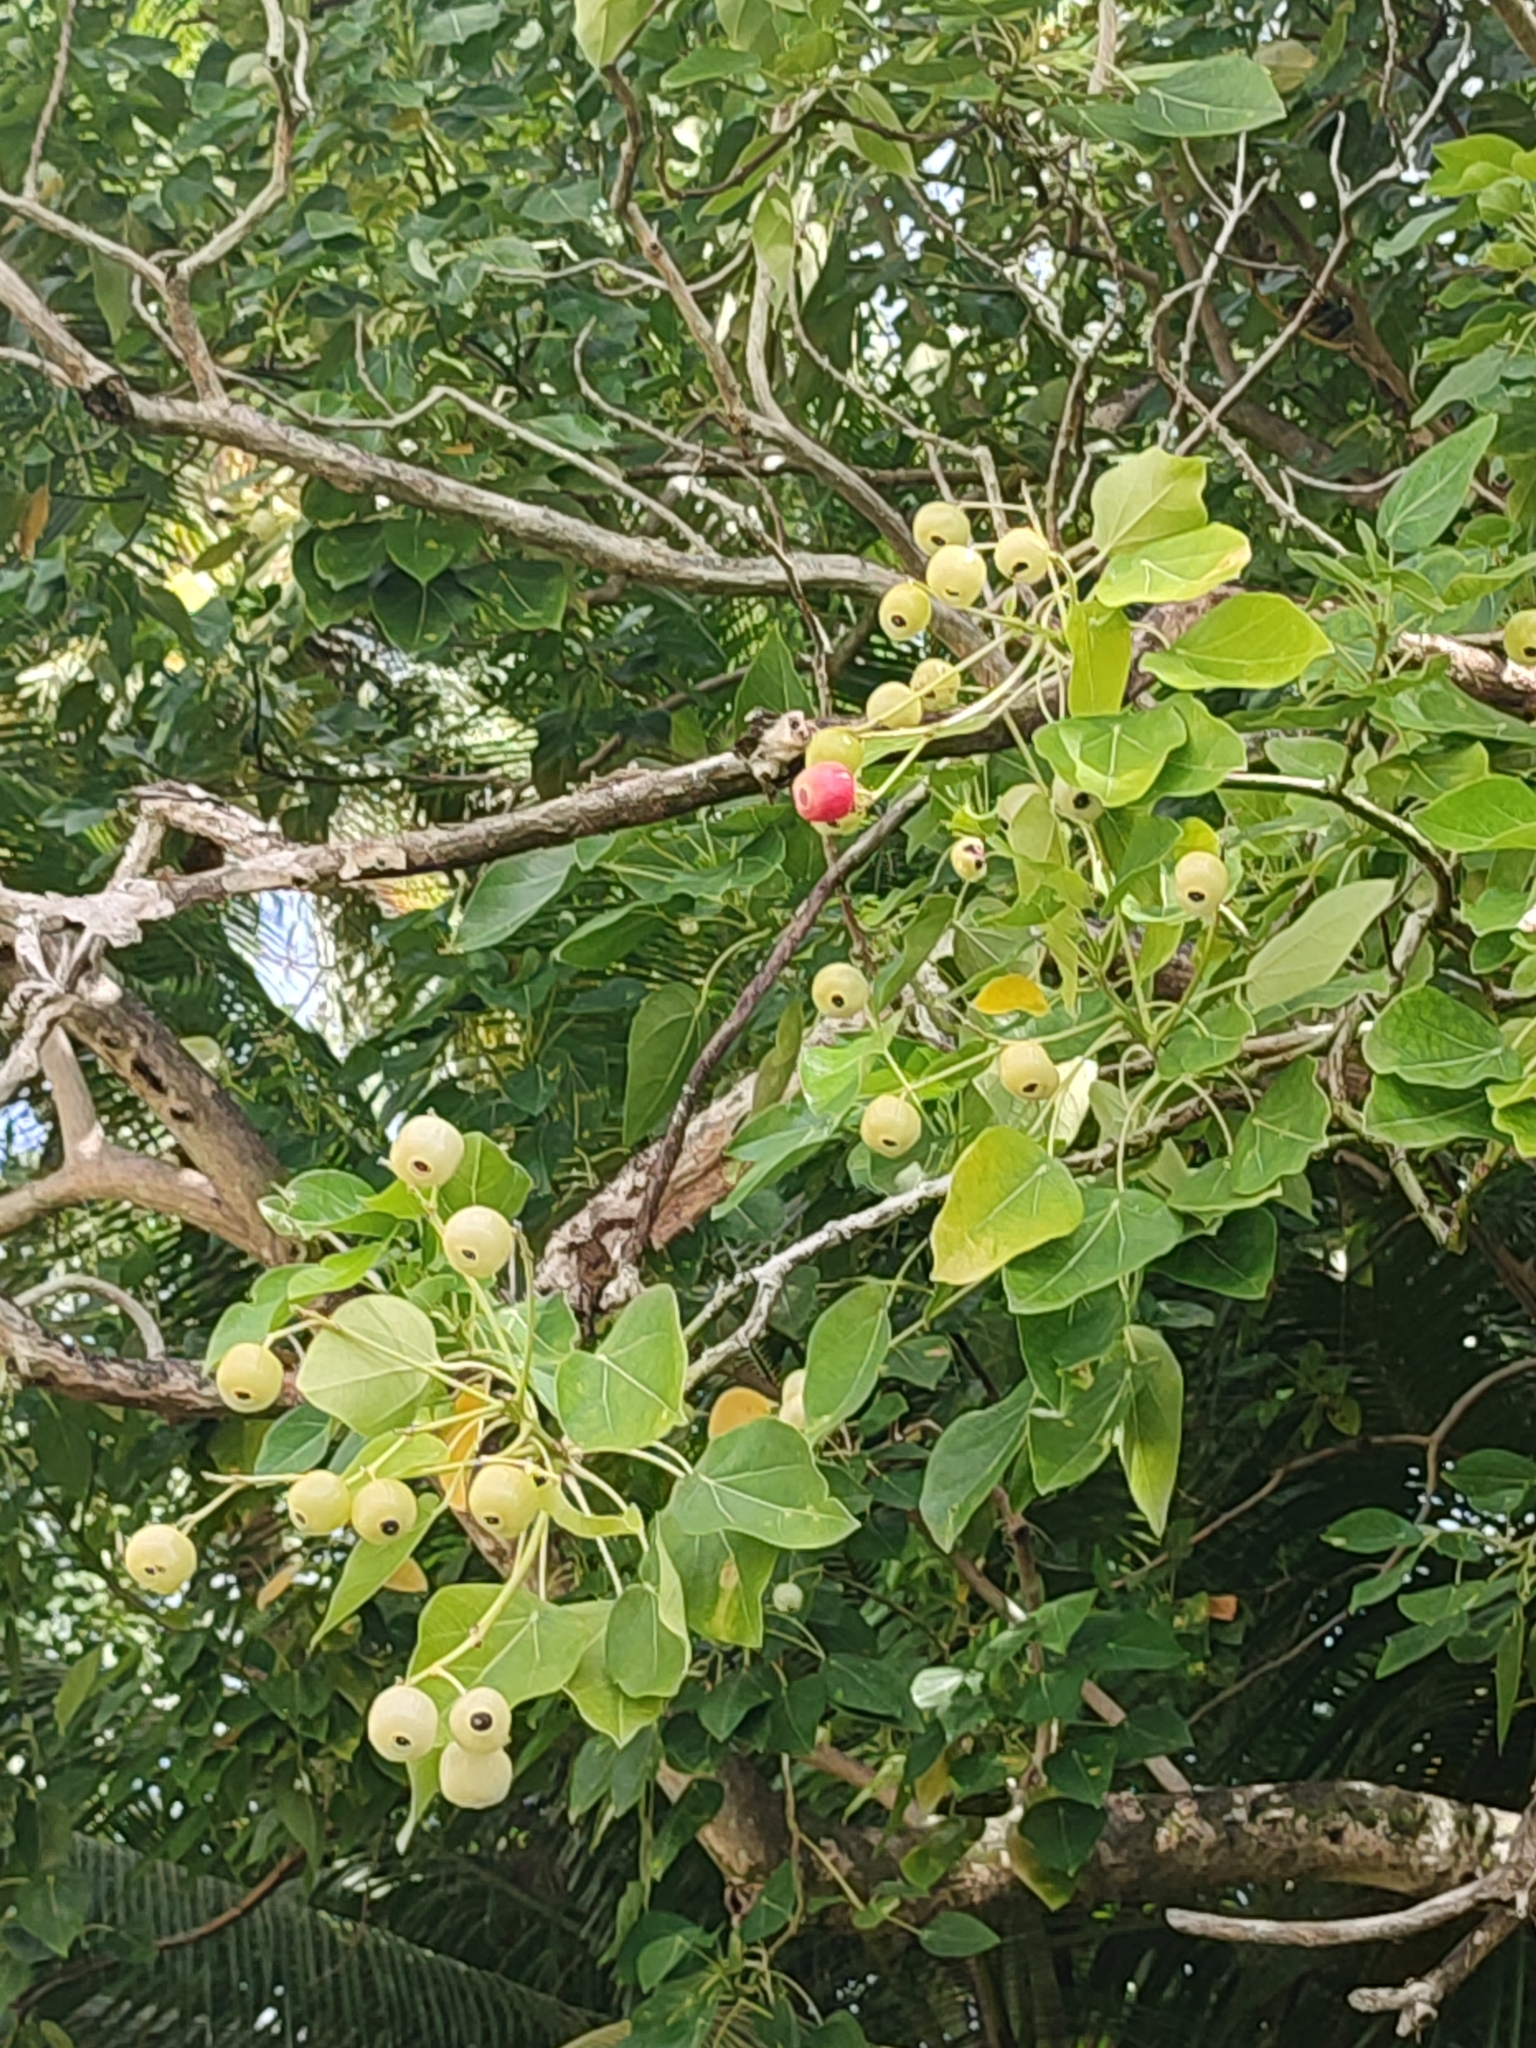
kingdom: Plantae
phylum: Tracheophyta
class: Magnoliopsida
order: Laurales
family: Hernandiaceae
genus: Hernandia
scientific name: Hernandia nymphaeifolia
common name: Sea hearse
